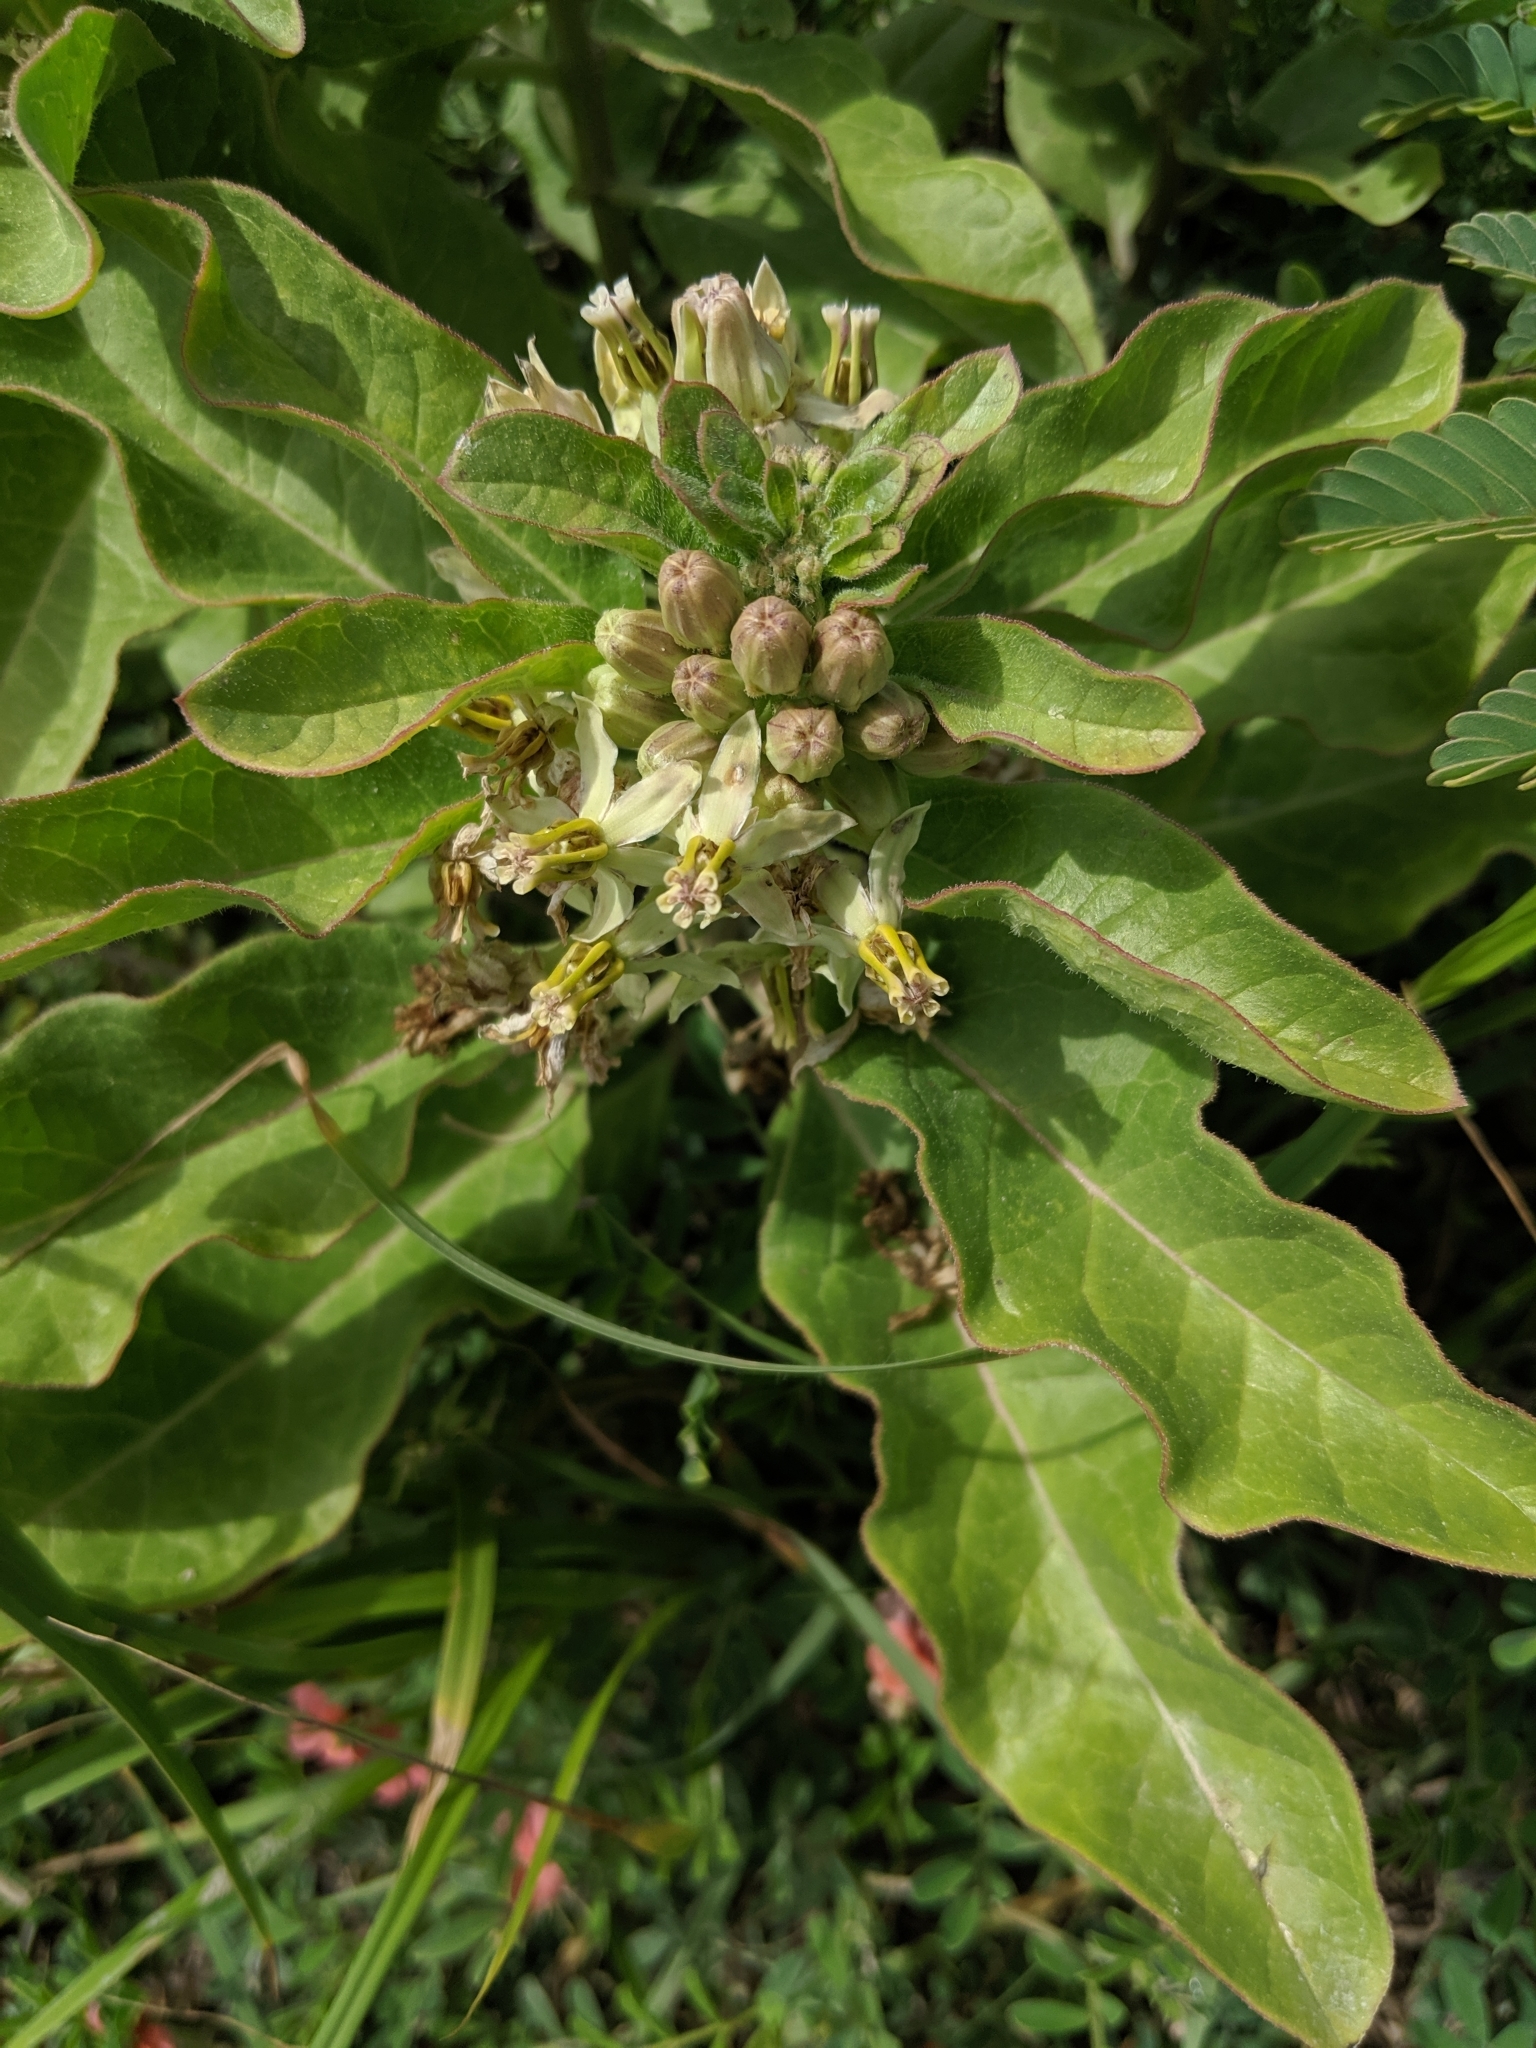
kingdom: Plantae
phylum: Tracheophyta
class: Magnoliopsida
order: Gentianales
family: Apocynaceae
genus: Asclepias
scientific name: Asclepias oenotheroides
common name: Zizotes milkweed
